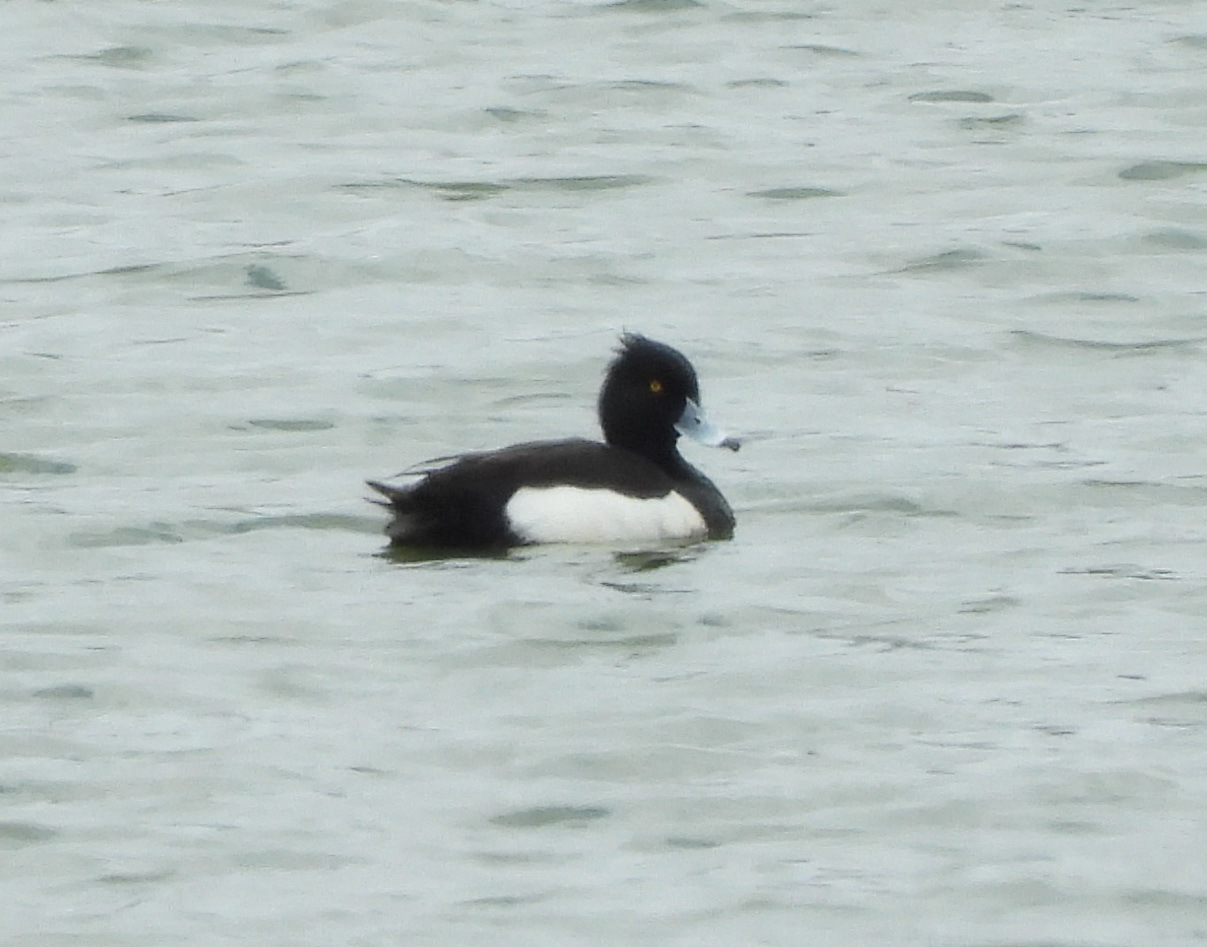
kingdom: Animalia
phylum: Chordata
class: Aves
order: Anseriformes
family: Anatidae
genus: Aythya
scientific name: Aythya fuligula
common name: Tufted duck
